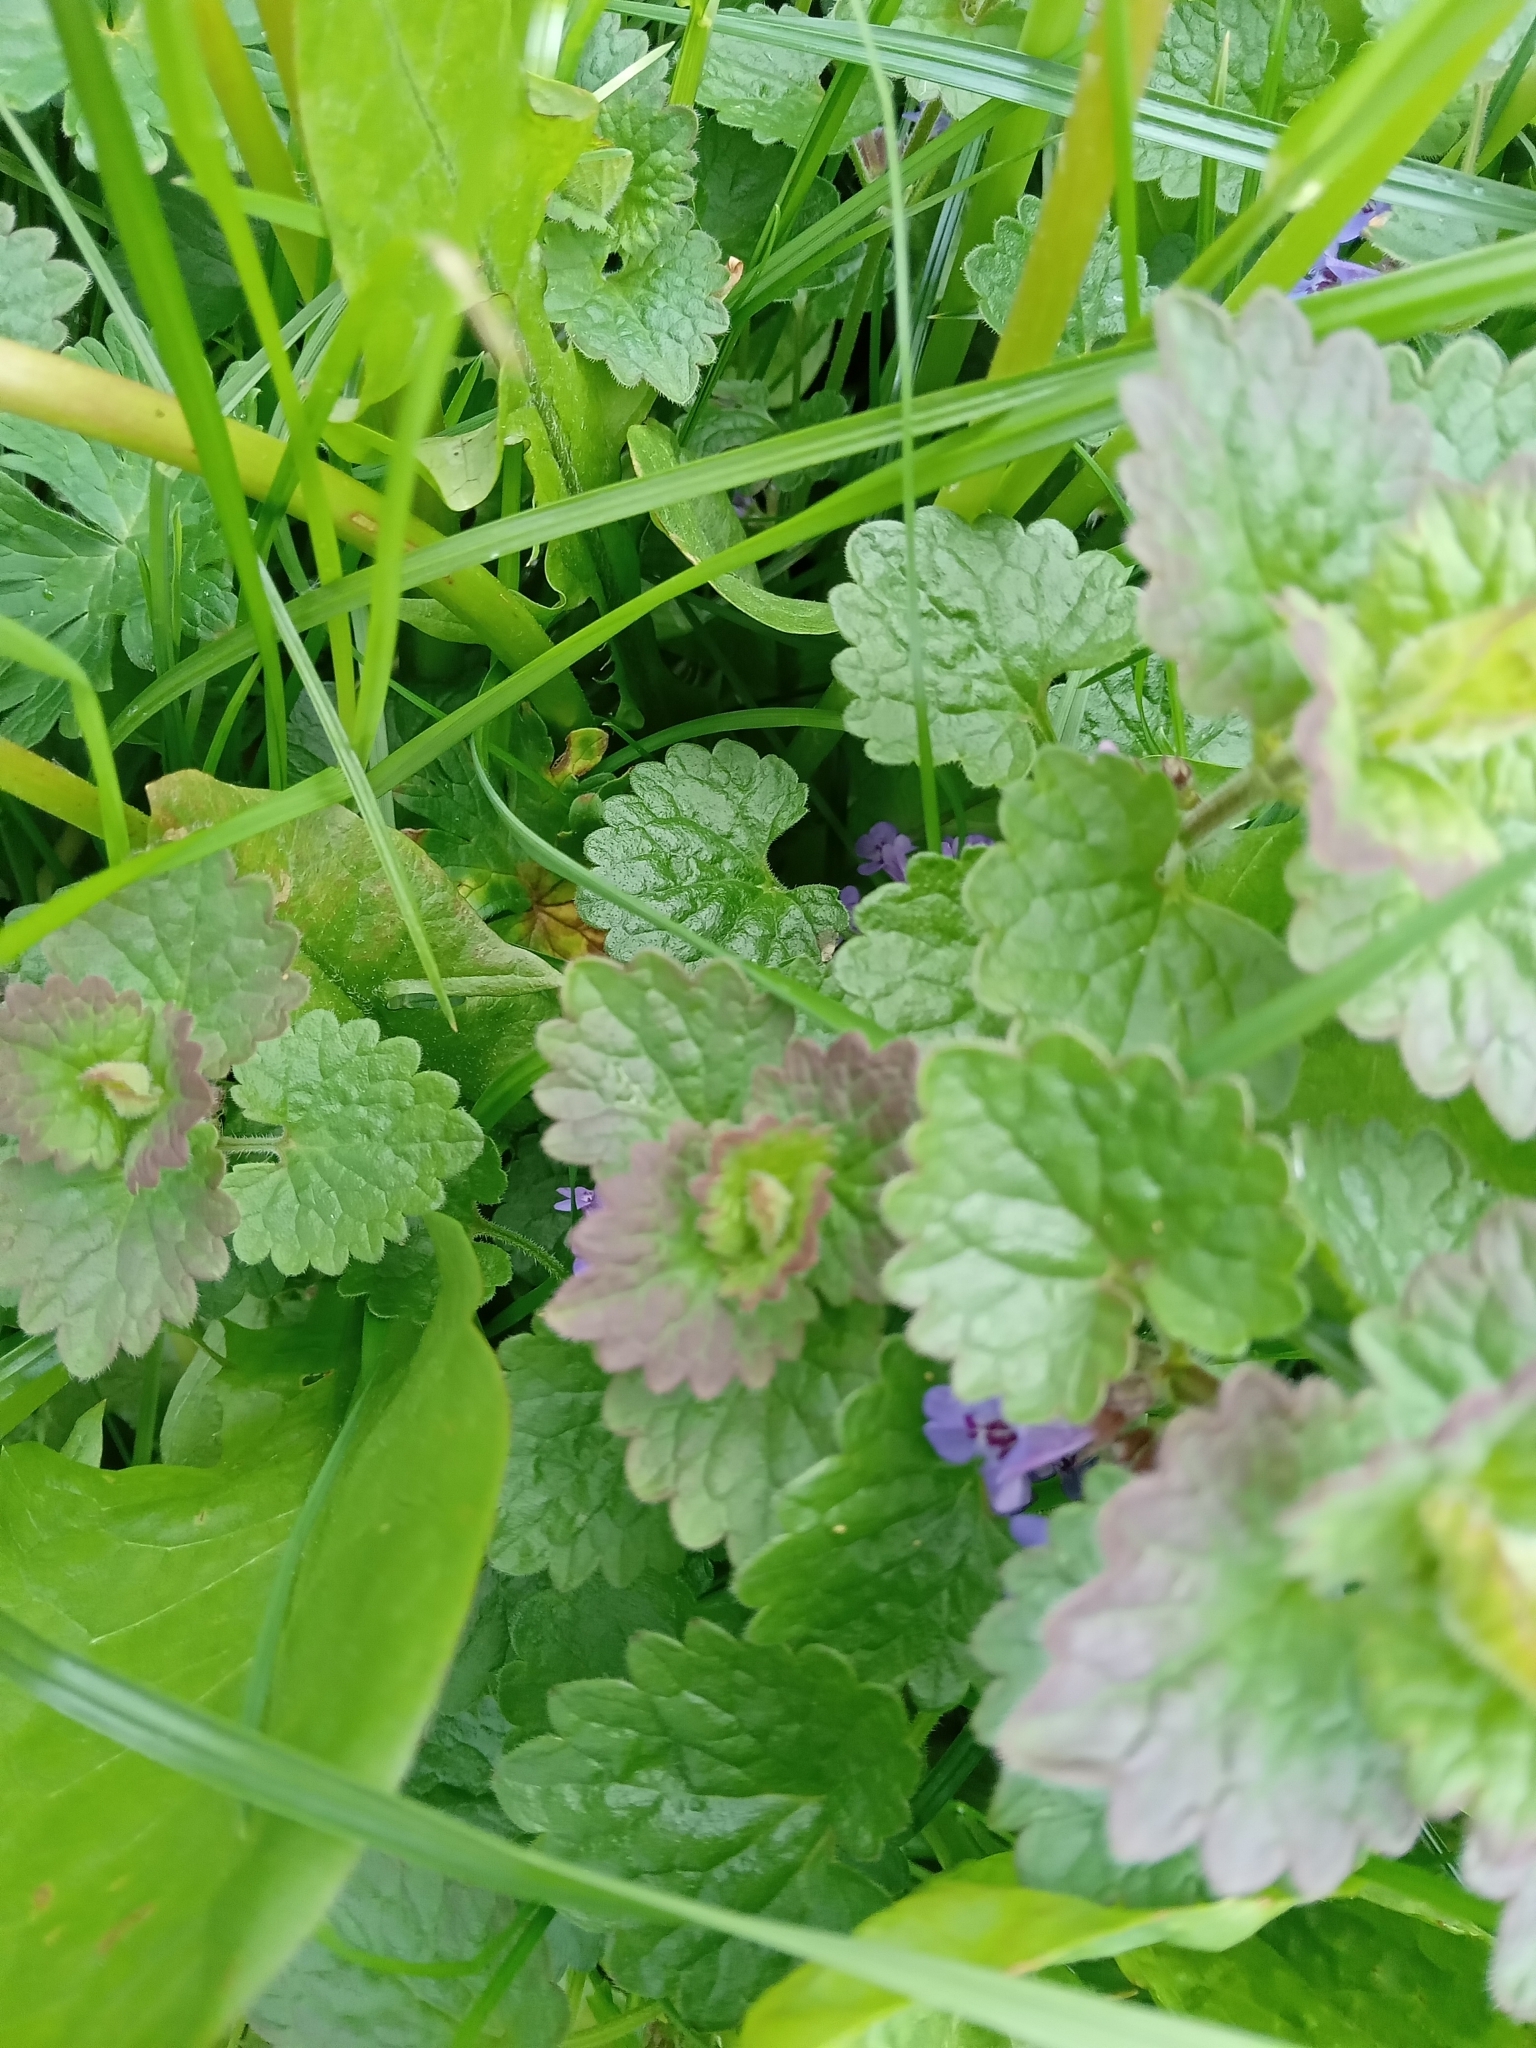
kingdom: Plantae
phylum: Tracheophyta
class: Magnoliopsida
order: Lamiales
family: Lamiaceae
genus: Glechoma
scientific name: Glechoma hederacea
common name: Ground ivy
